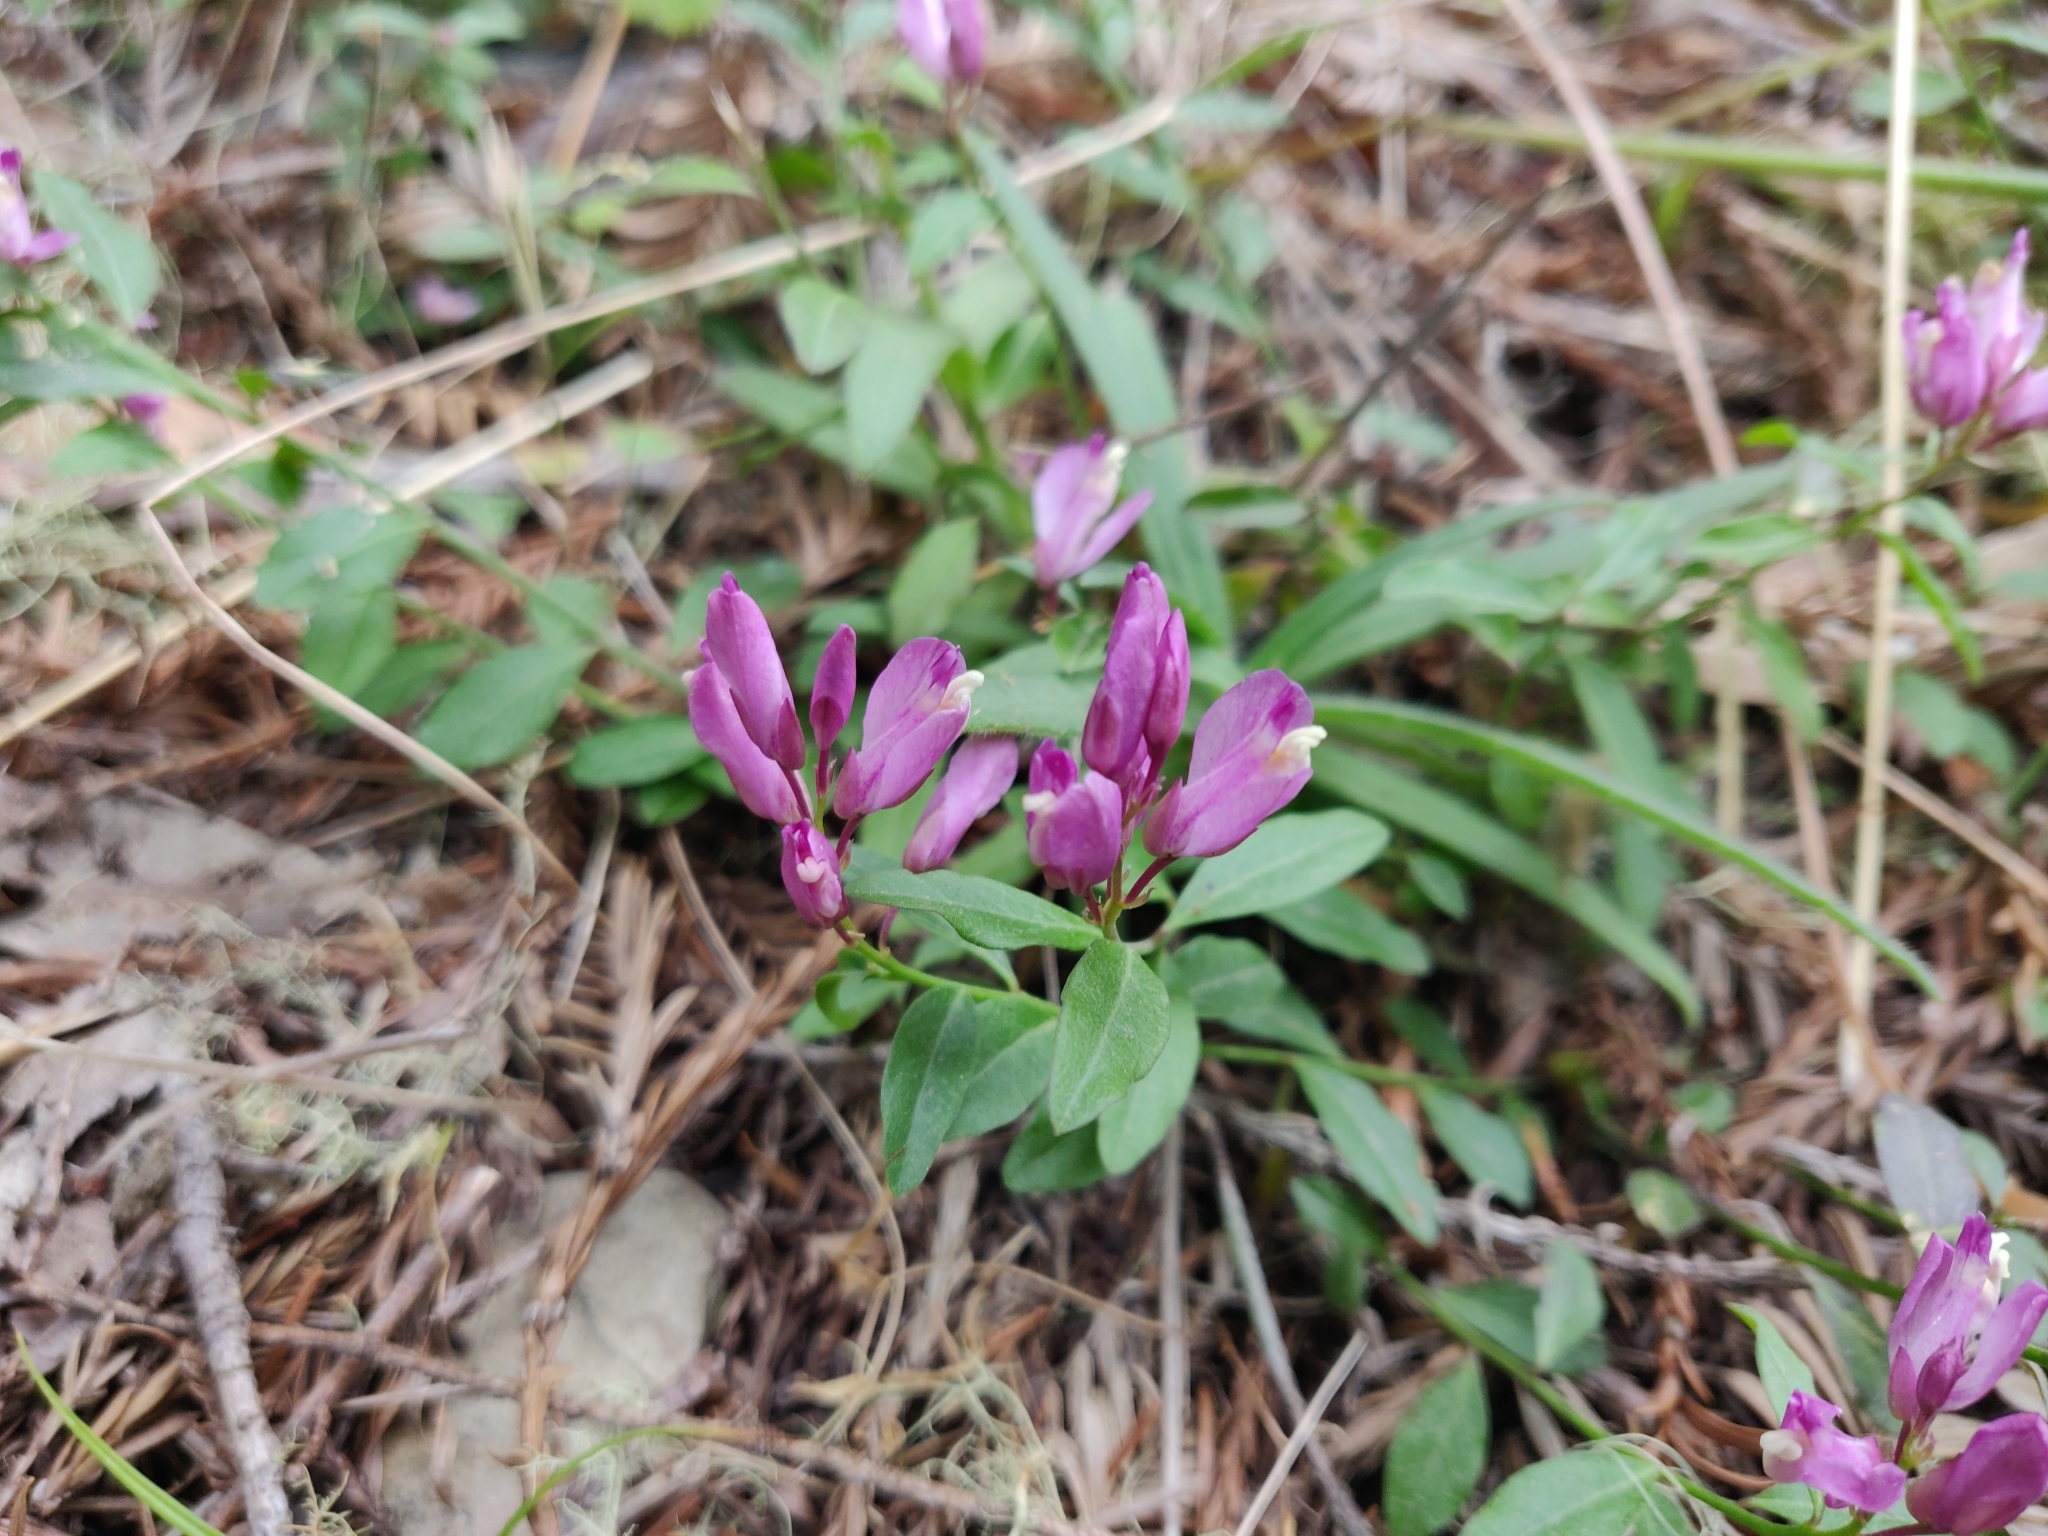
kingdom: Plantae
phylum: Tracheophyta
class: Magnoliopsida
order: Fabales
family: Polygalaceae
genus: Rhinotropis
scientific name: Rhinotropis californica
